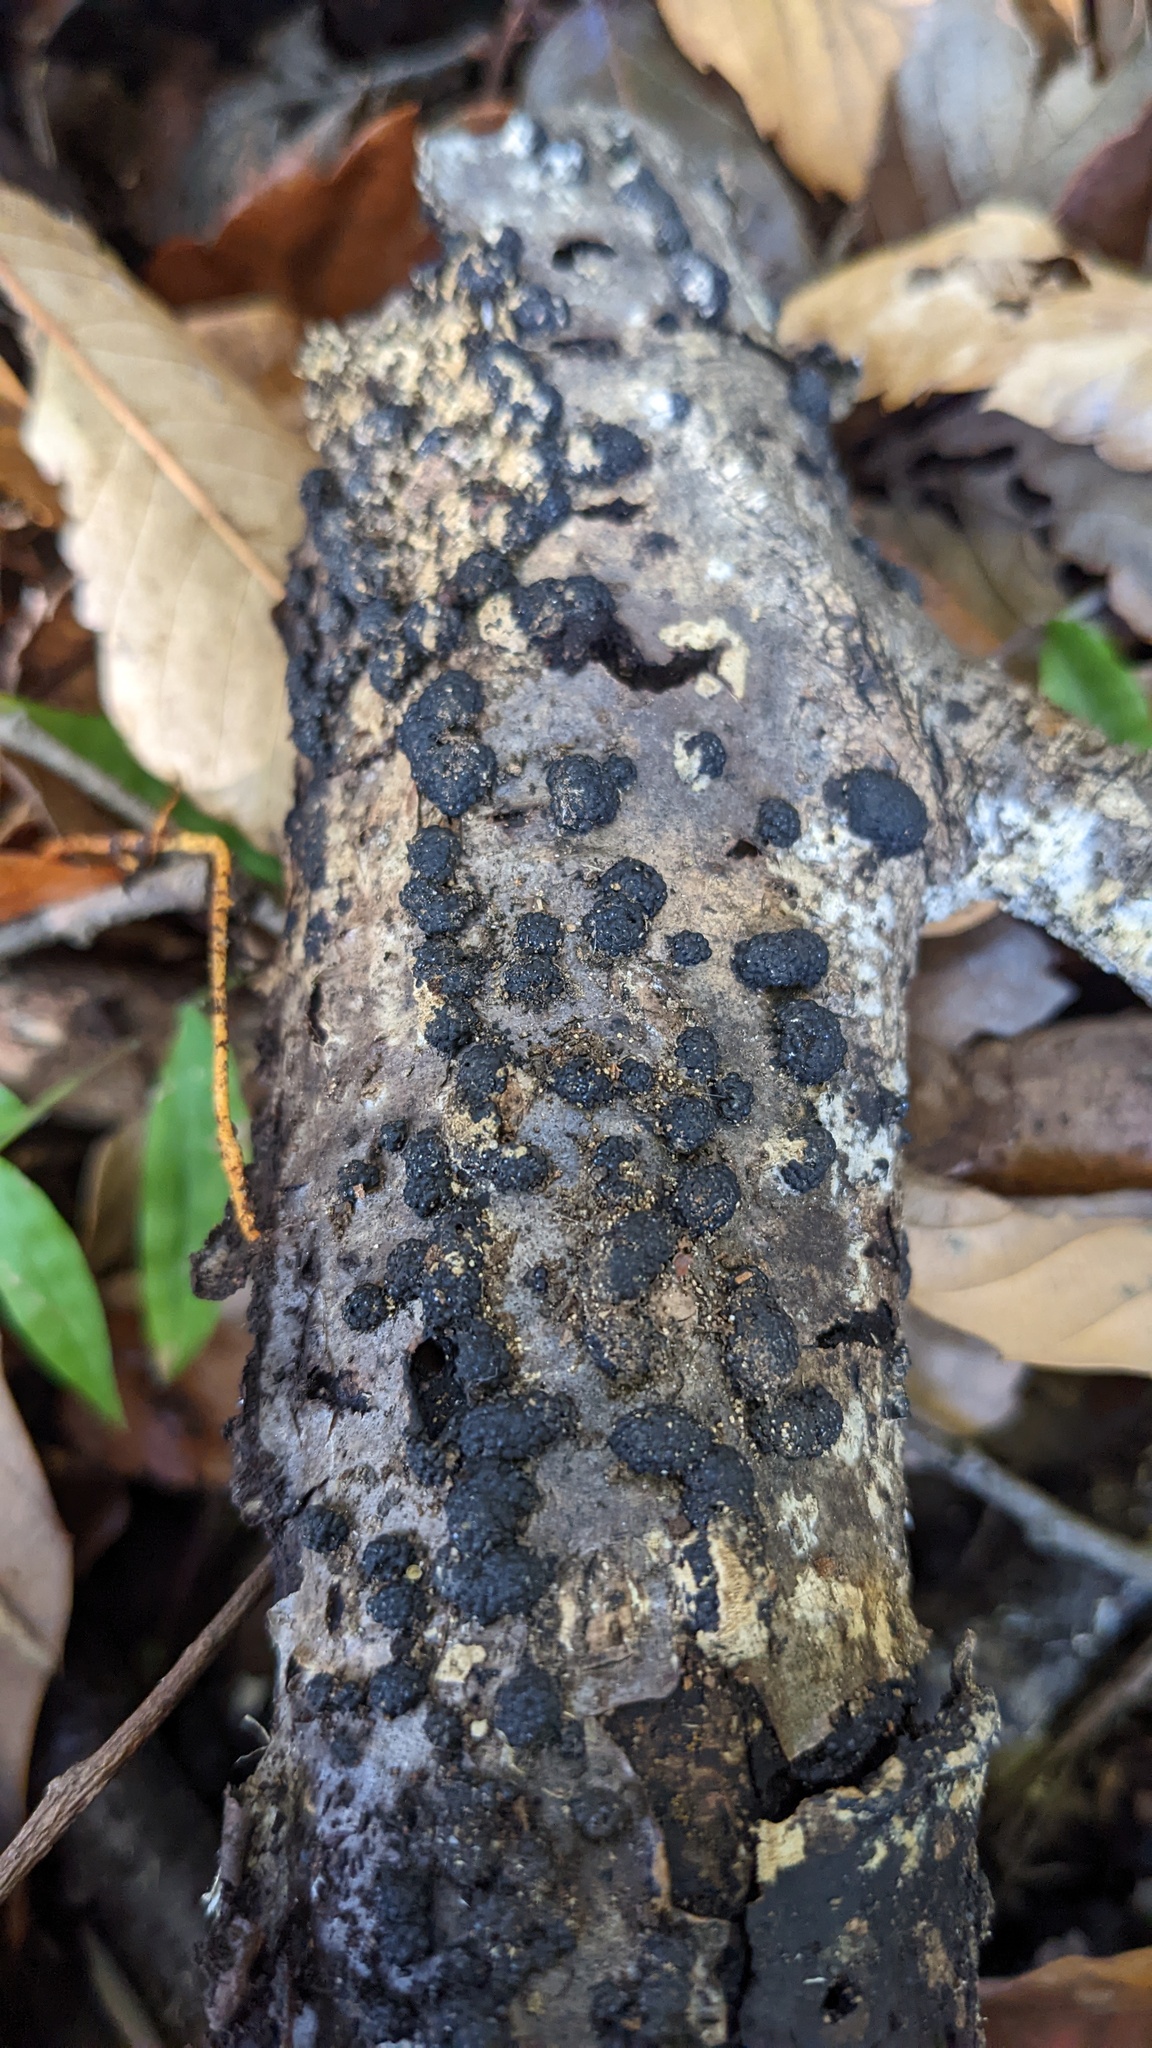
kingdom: Fungi
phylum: Ascomycota
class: Sordariomycetes
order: Xylariales
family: Hypoxylaceae
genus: Annulohypoxylon
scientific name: Annulohypoxylon truncatum
